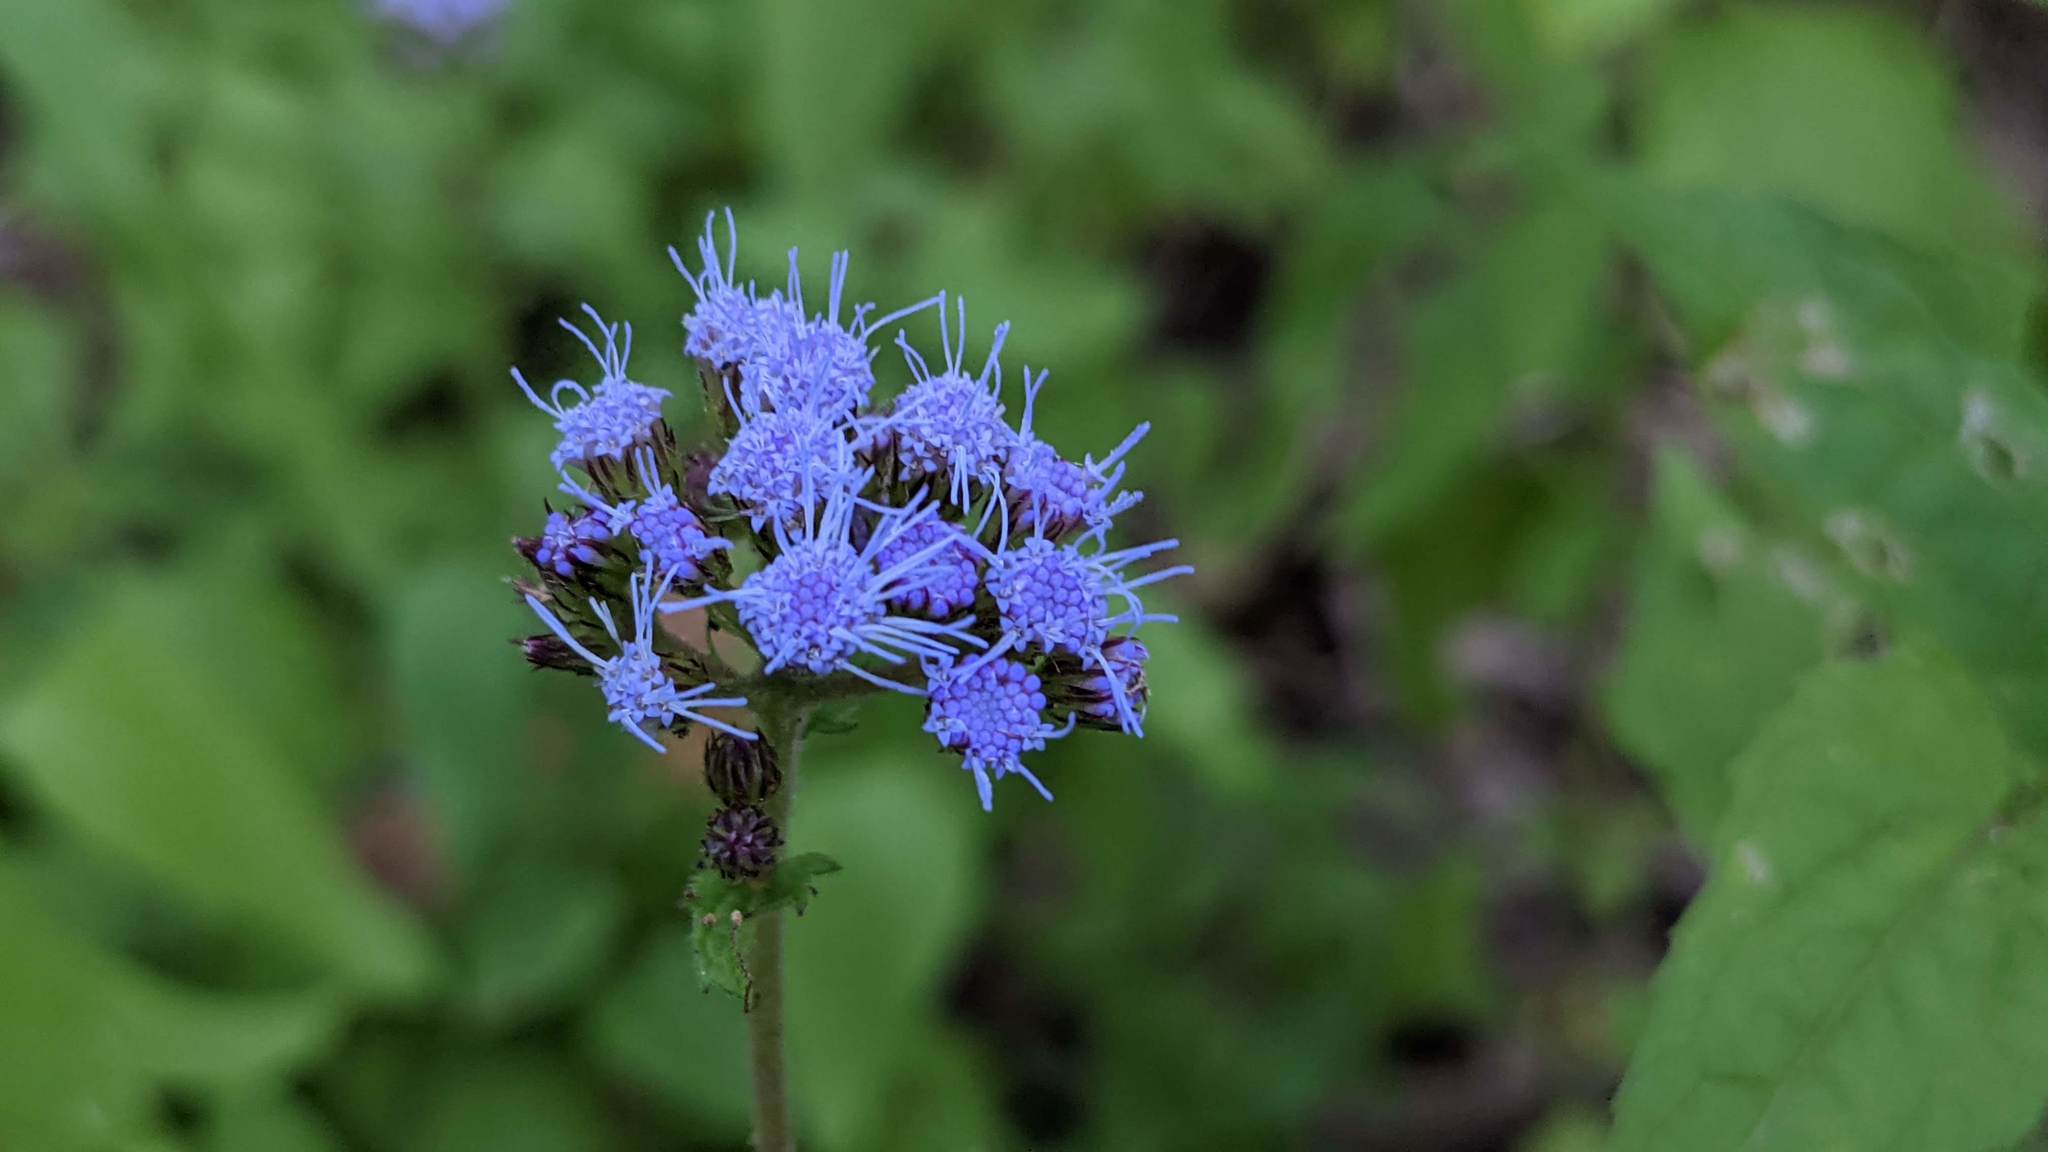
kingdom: Plantae
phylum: Tracheophyta
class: Magnoliopsida
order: Asterales
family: Asteraceae
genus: Conoclinium
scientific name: Conoclinium coelestinum
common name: Blue mistflower
